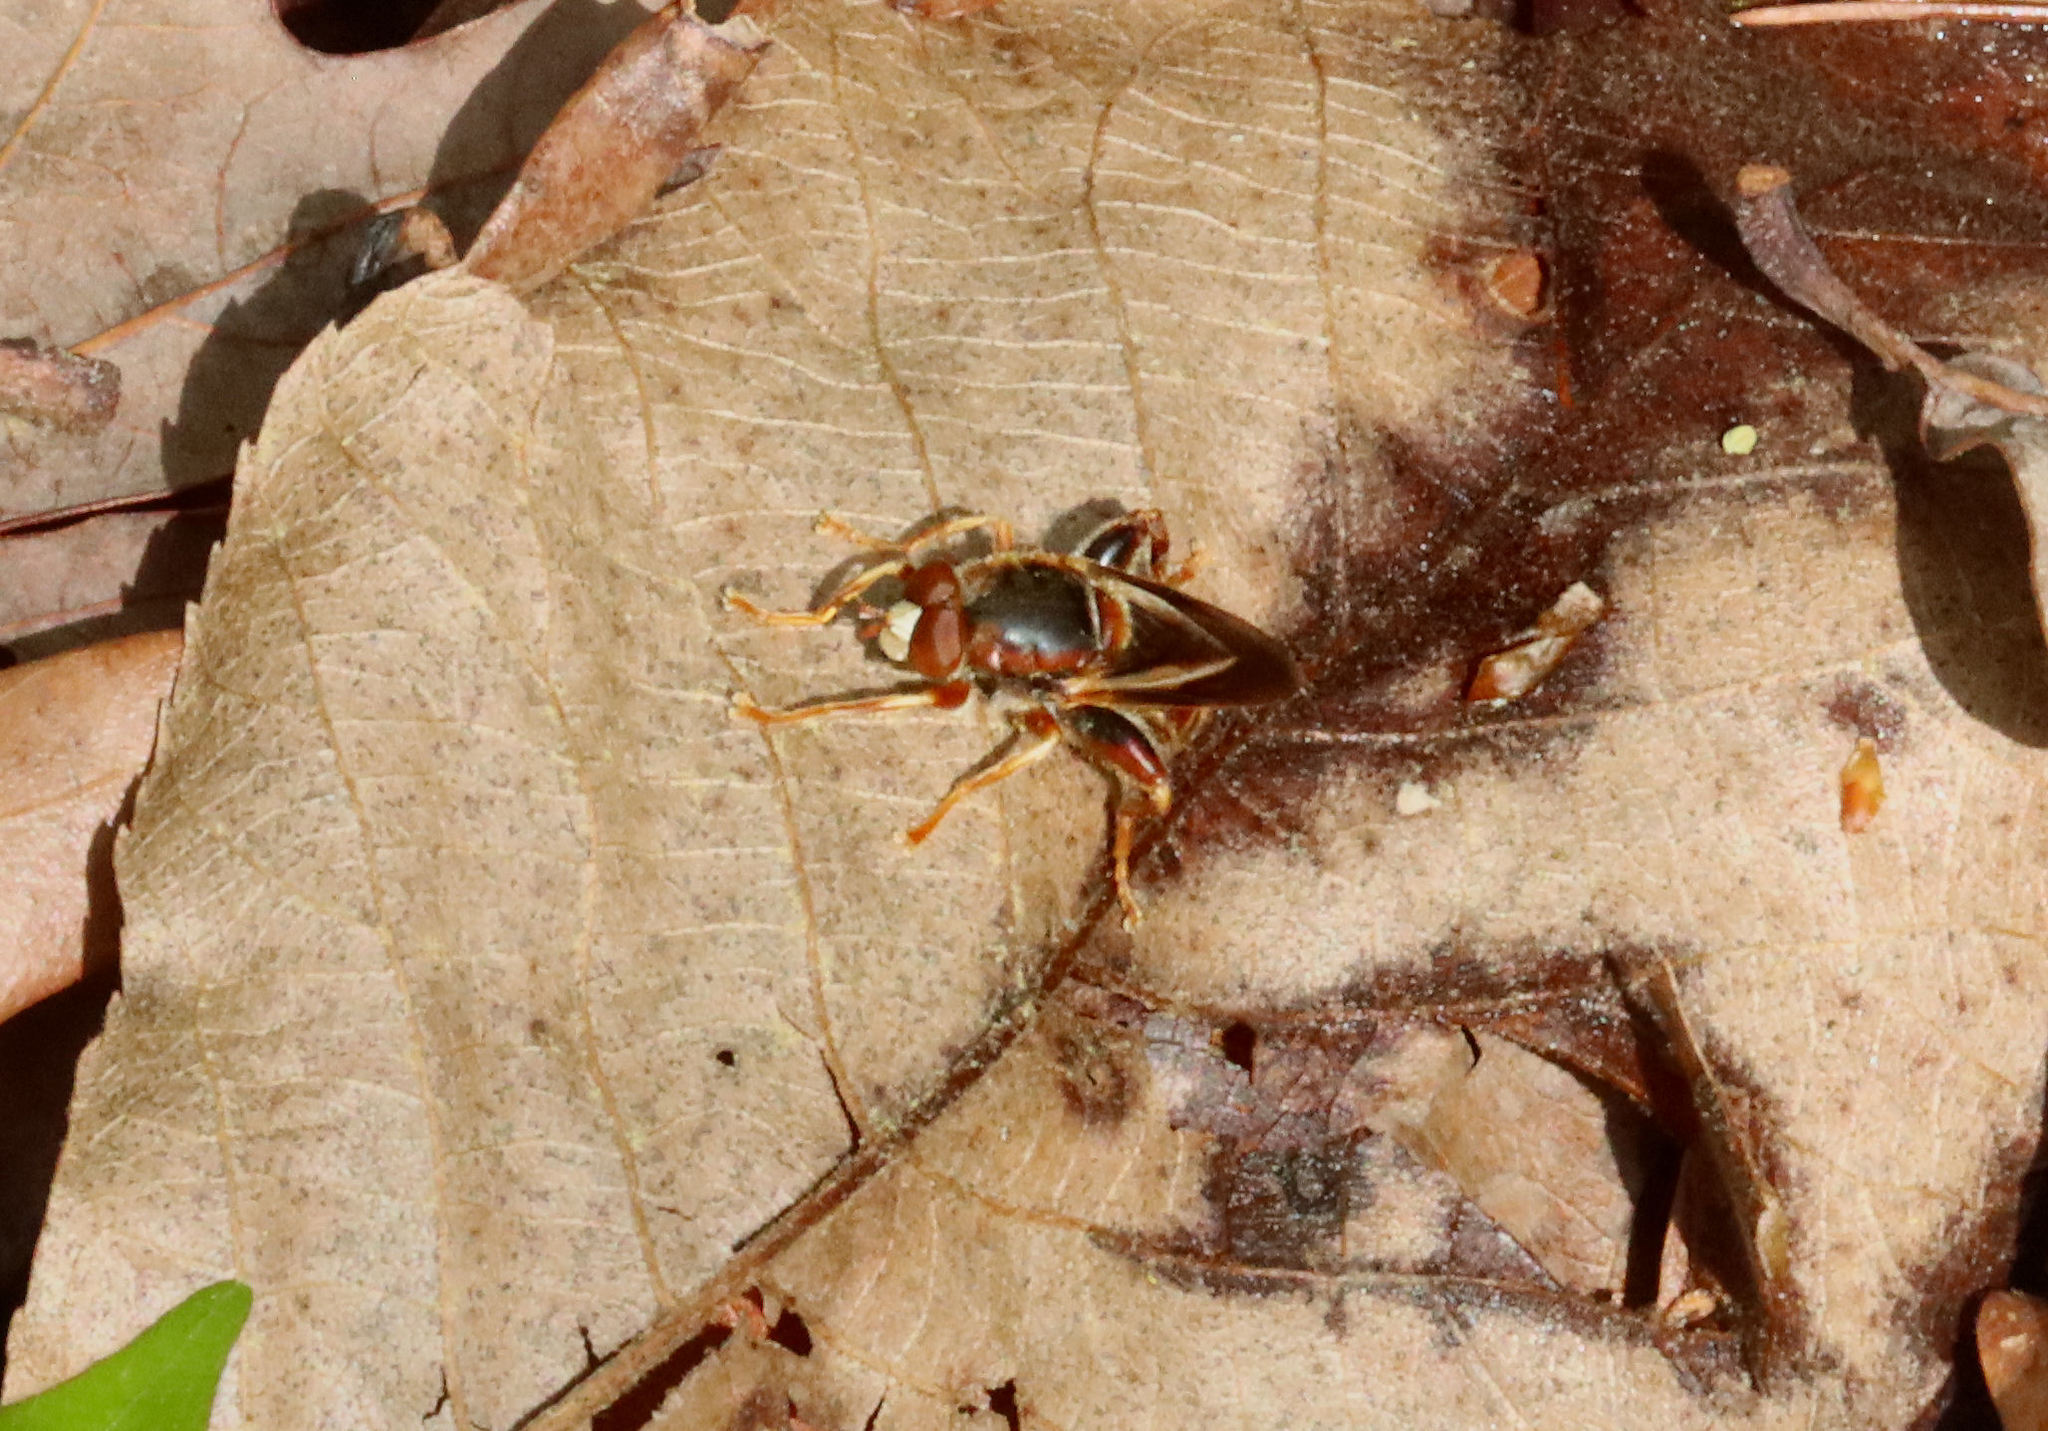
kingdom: Animalia
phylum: Arthropoda
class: Insecta
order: Diptera
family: Syrphidae
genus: Teuchocnemis
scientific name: Teuchocnemis bacuntius
